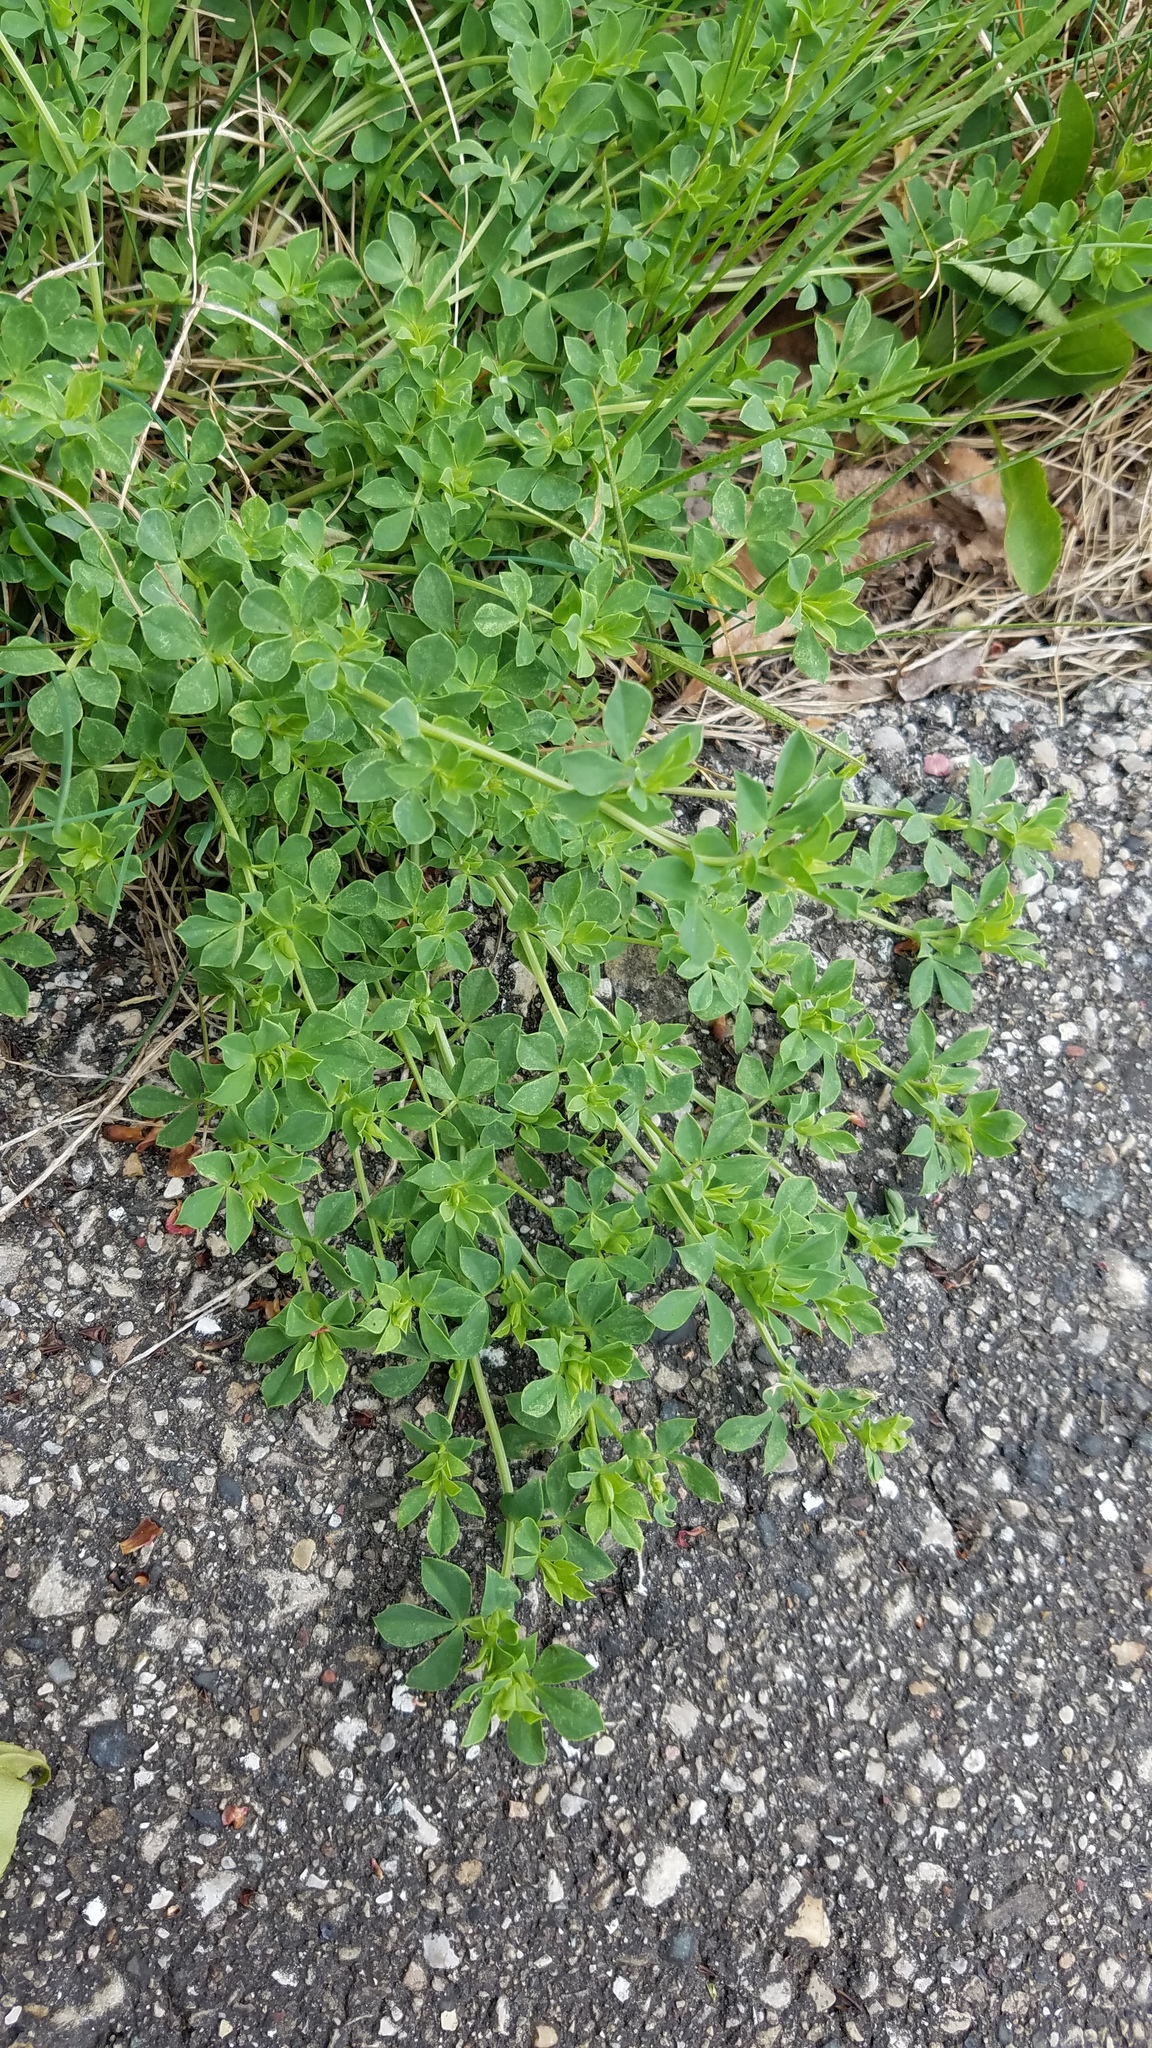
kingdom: Plantae
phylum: Tracheophyta
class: Magnoliopsida
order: Fabales
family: Fabaceae
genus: Lotus
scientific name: Lotus corniculatus
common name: Common bird's-foot-trefoil
